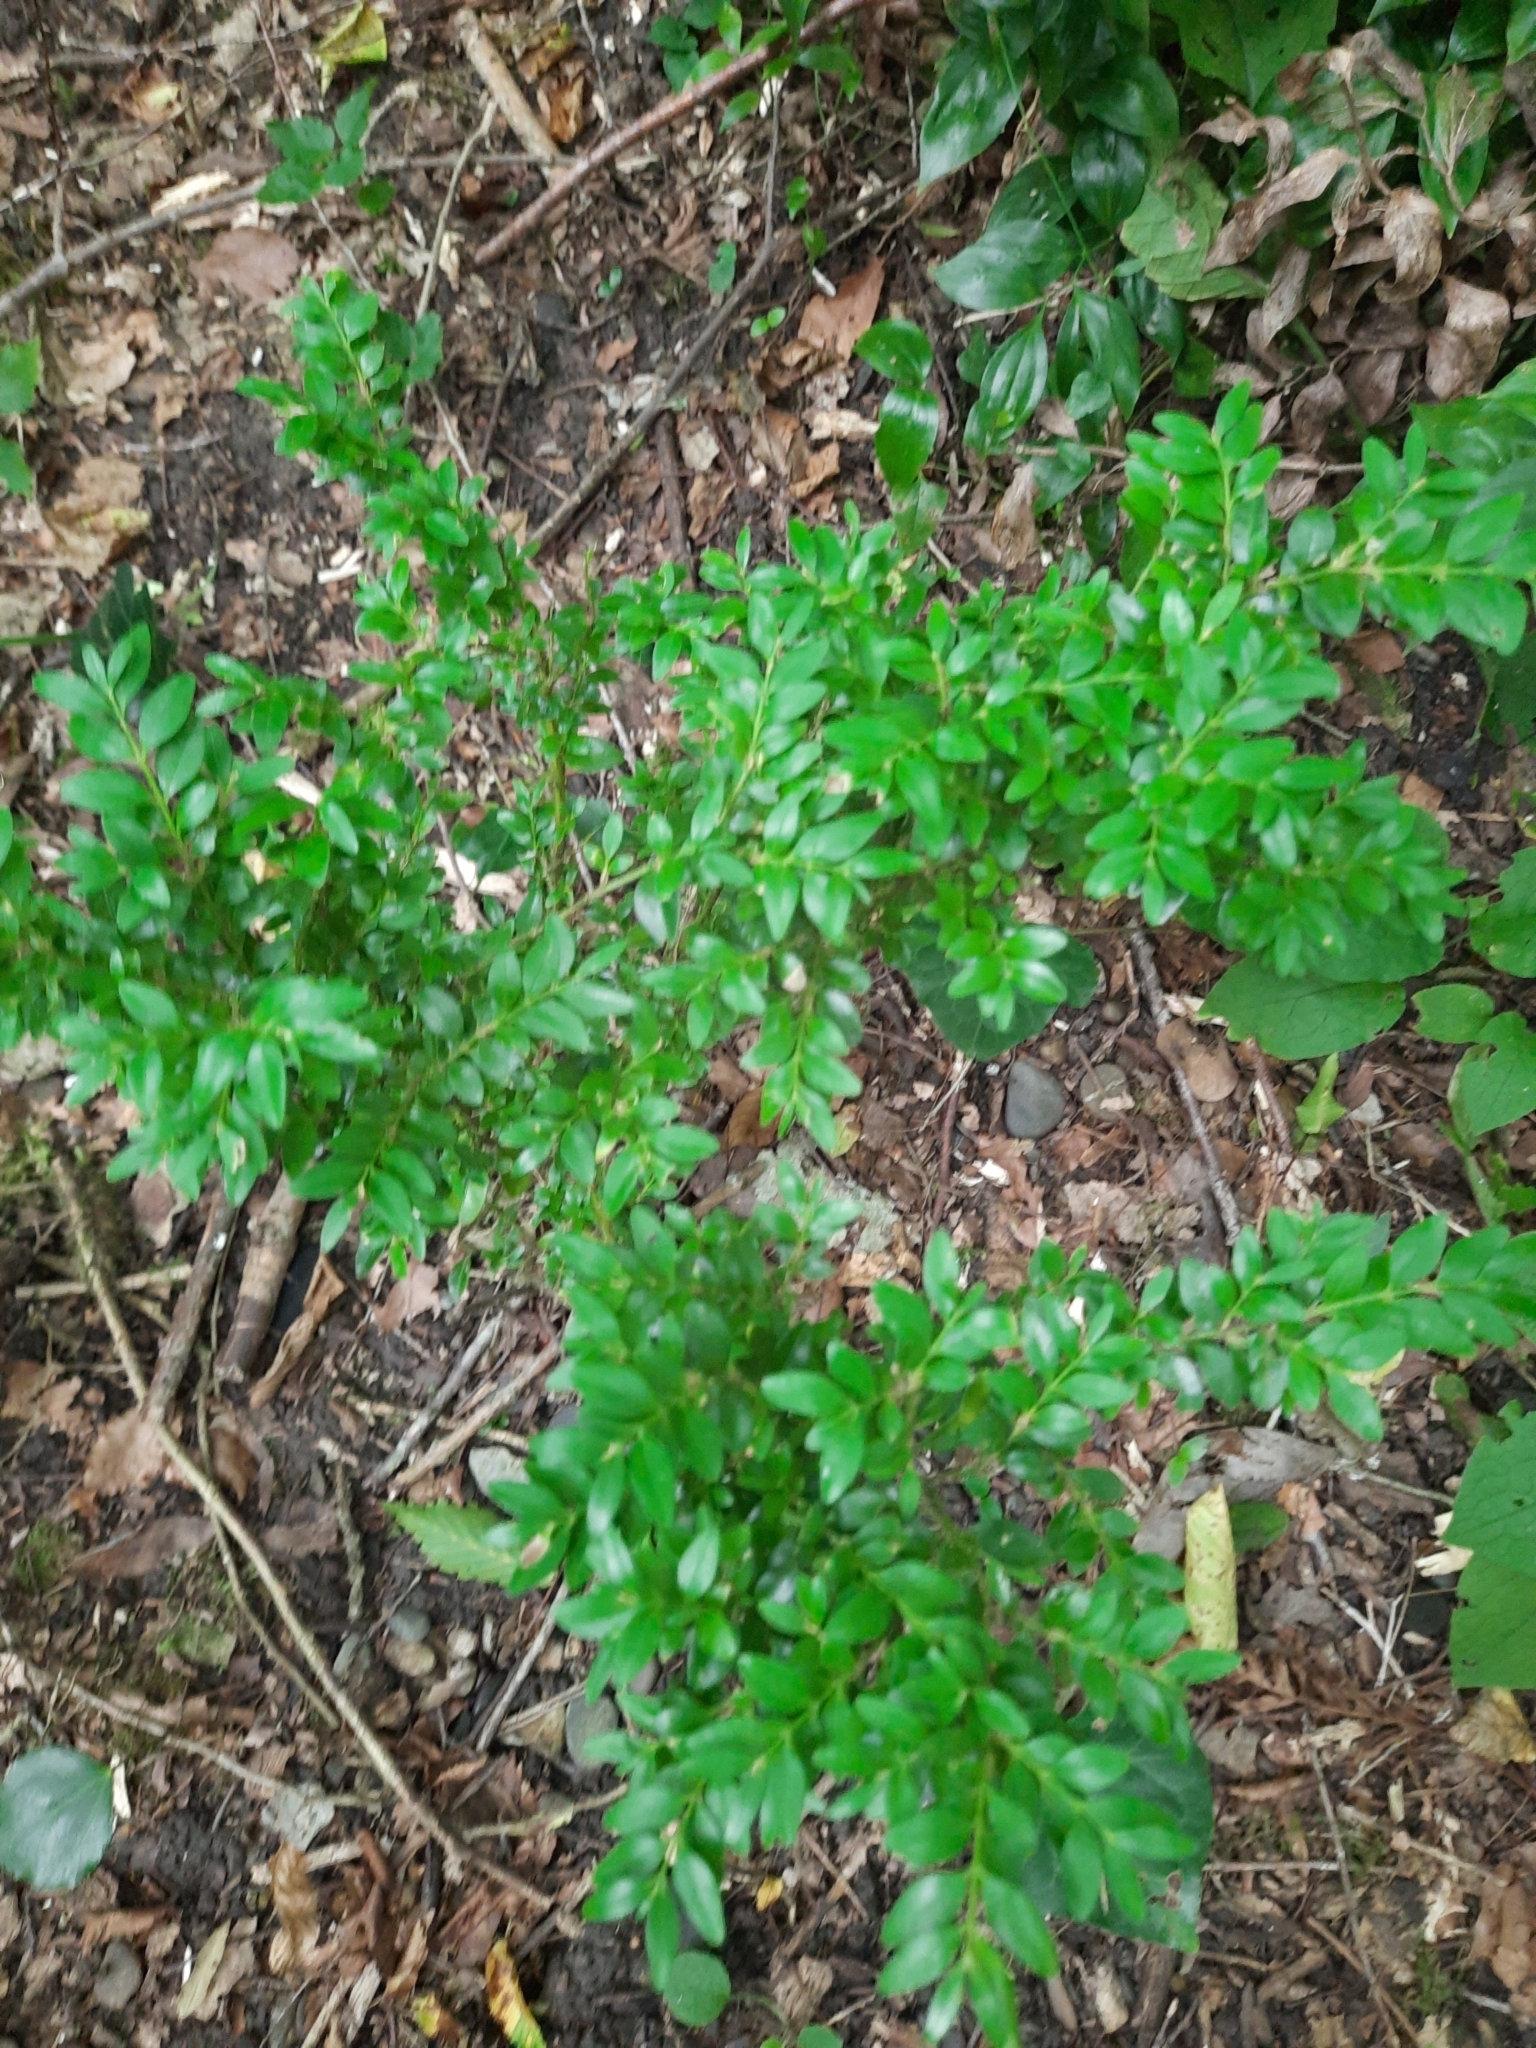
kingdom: Plantae
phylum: Tracheophyta
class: Magnoliopsida
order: Buxales
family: Buxaceae
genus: Buxus
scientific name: Buxus sempervirens
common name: Box
